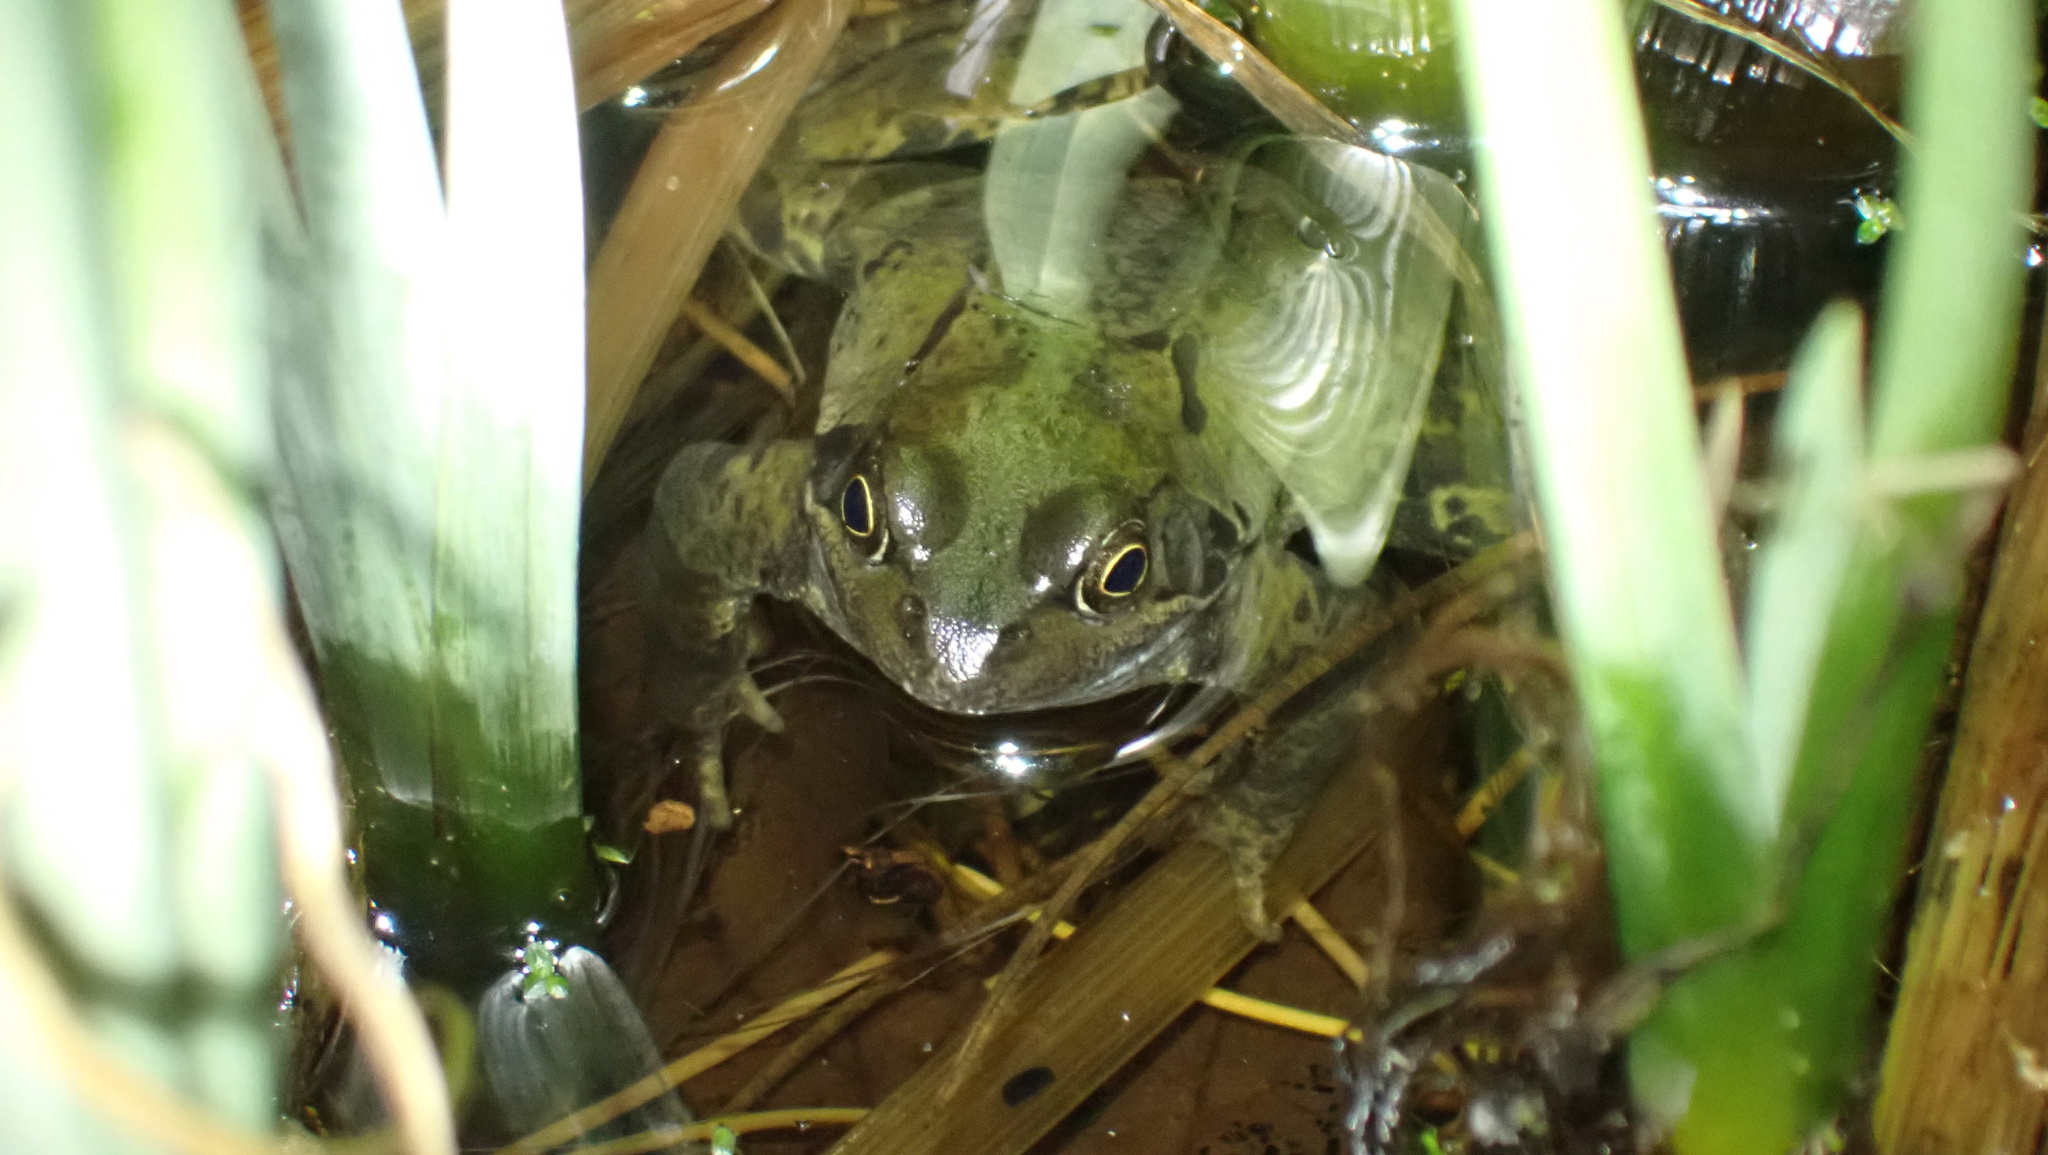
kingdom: Animalia
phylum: Chordata
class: Amphibia
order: Anura
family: Ranidae
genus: Rana
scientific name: Rana temporaria
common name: Common frog
